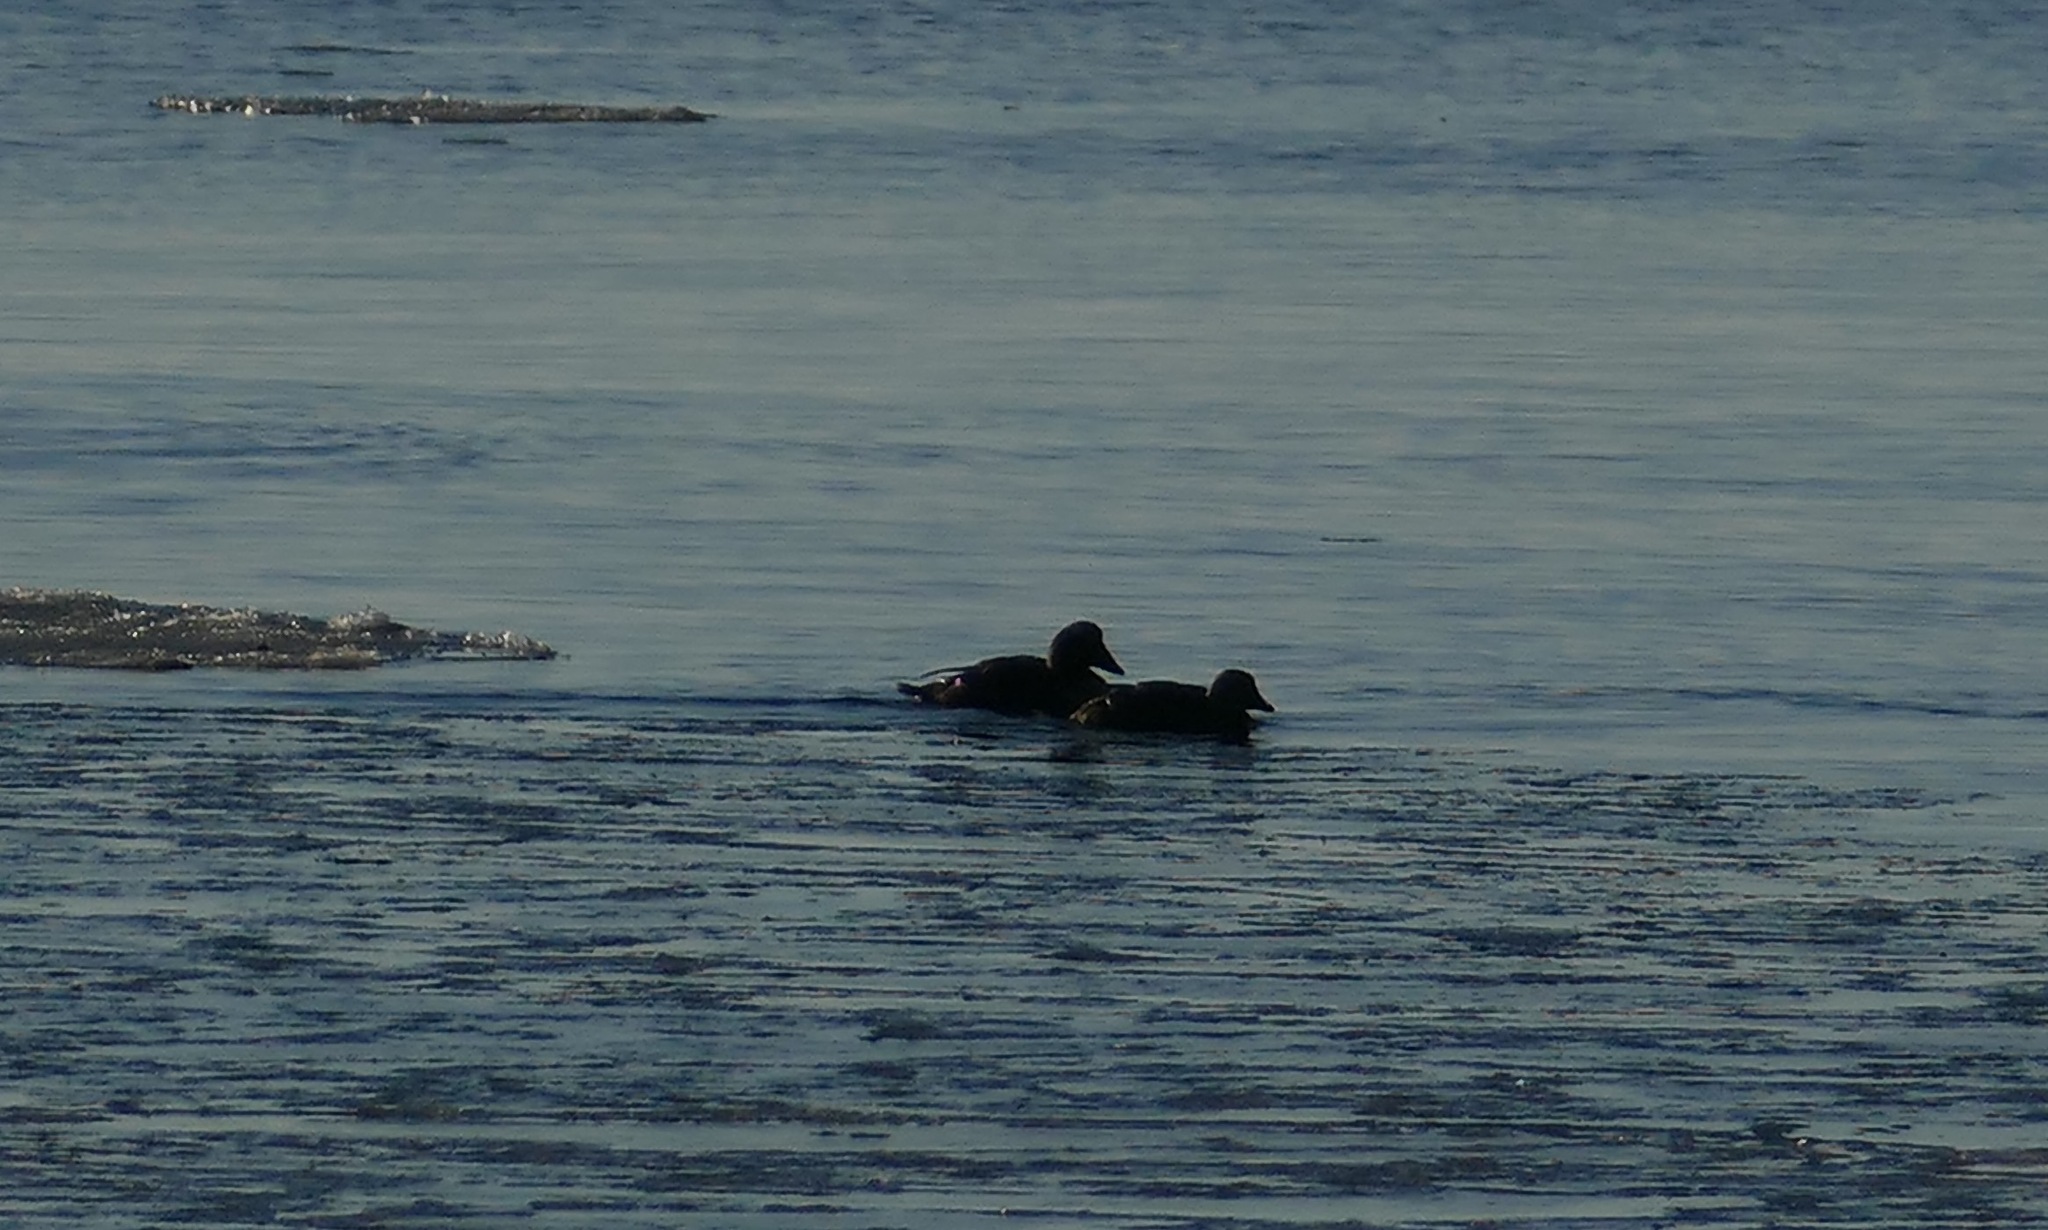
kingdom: Animalia
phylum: Chordata
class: Aves
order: Anseriformes
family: Anatidae
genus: Somateria
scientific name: Somateria spectabilis
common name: King eider
